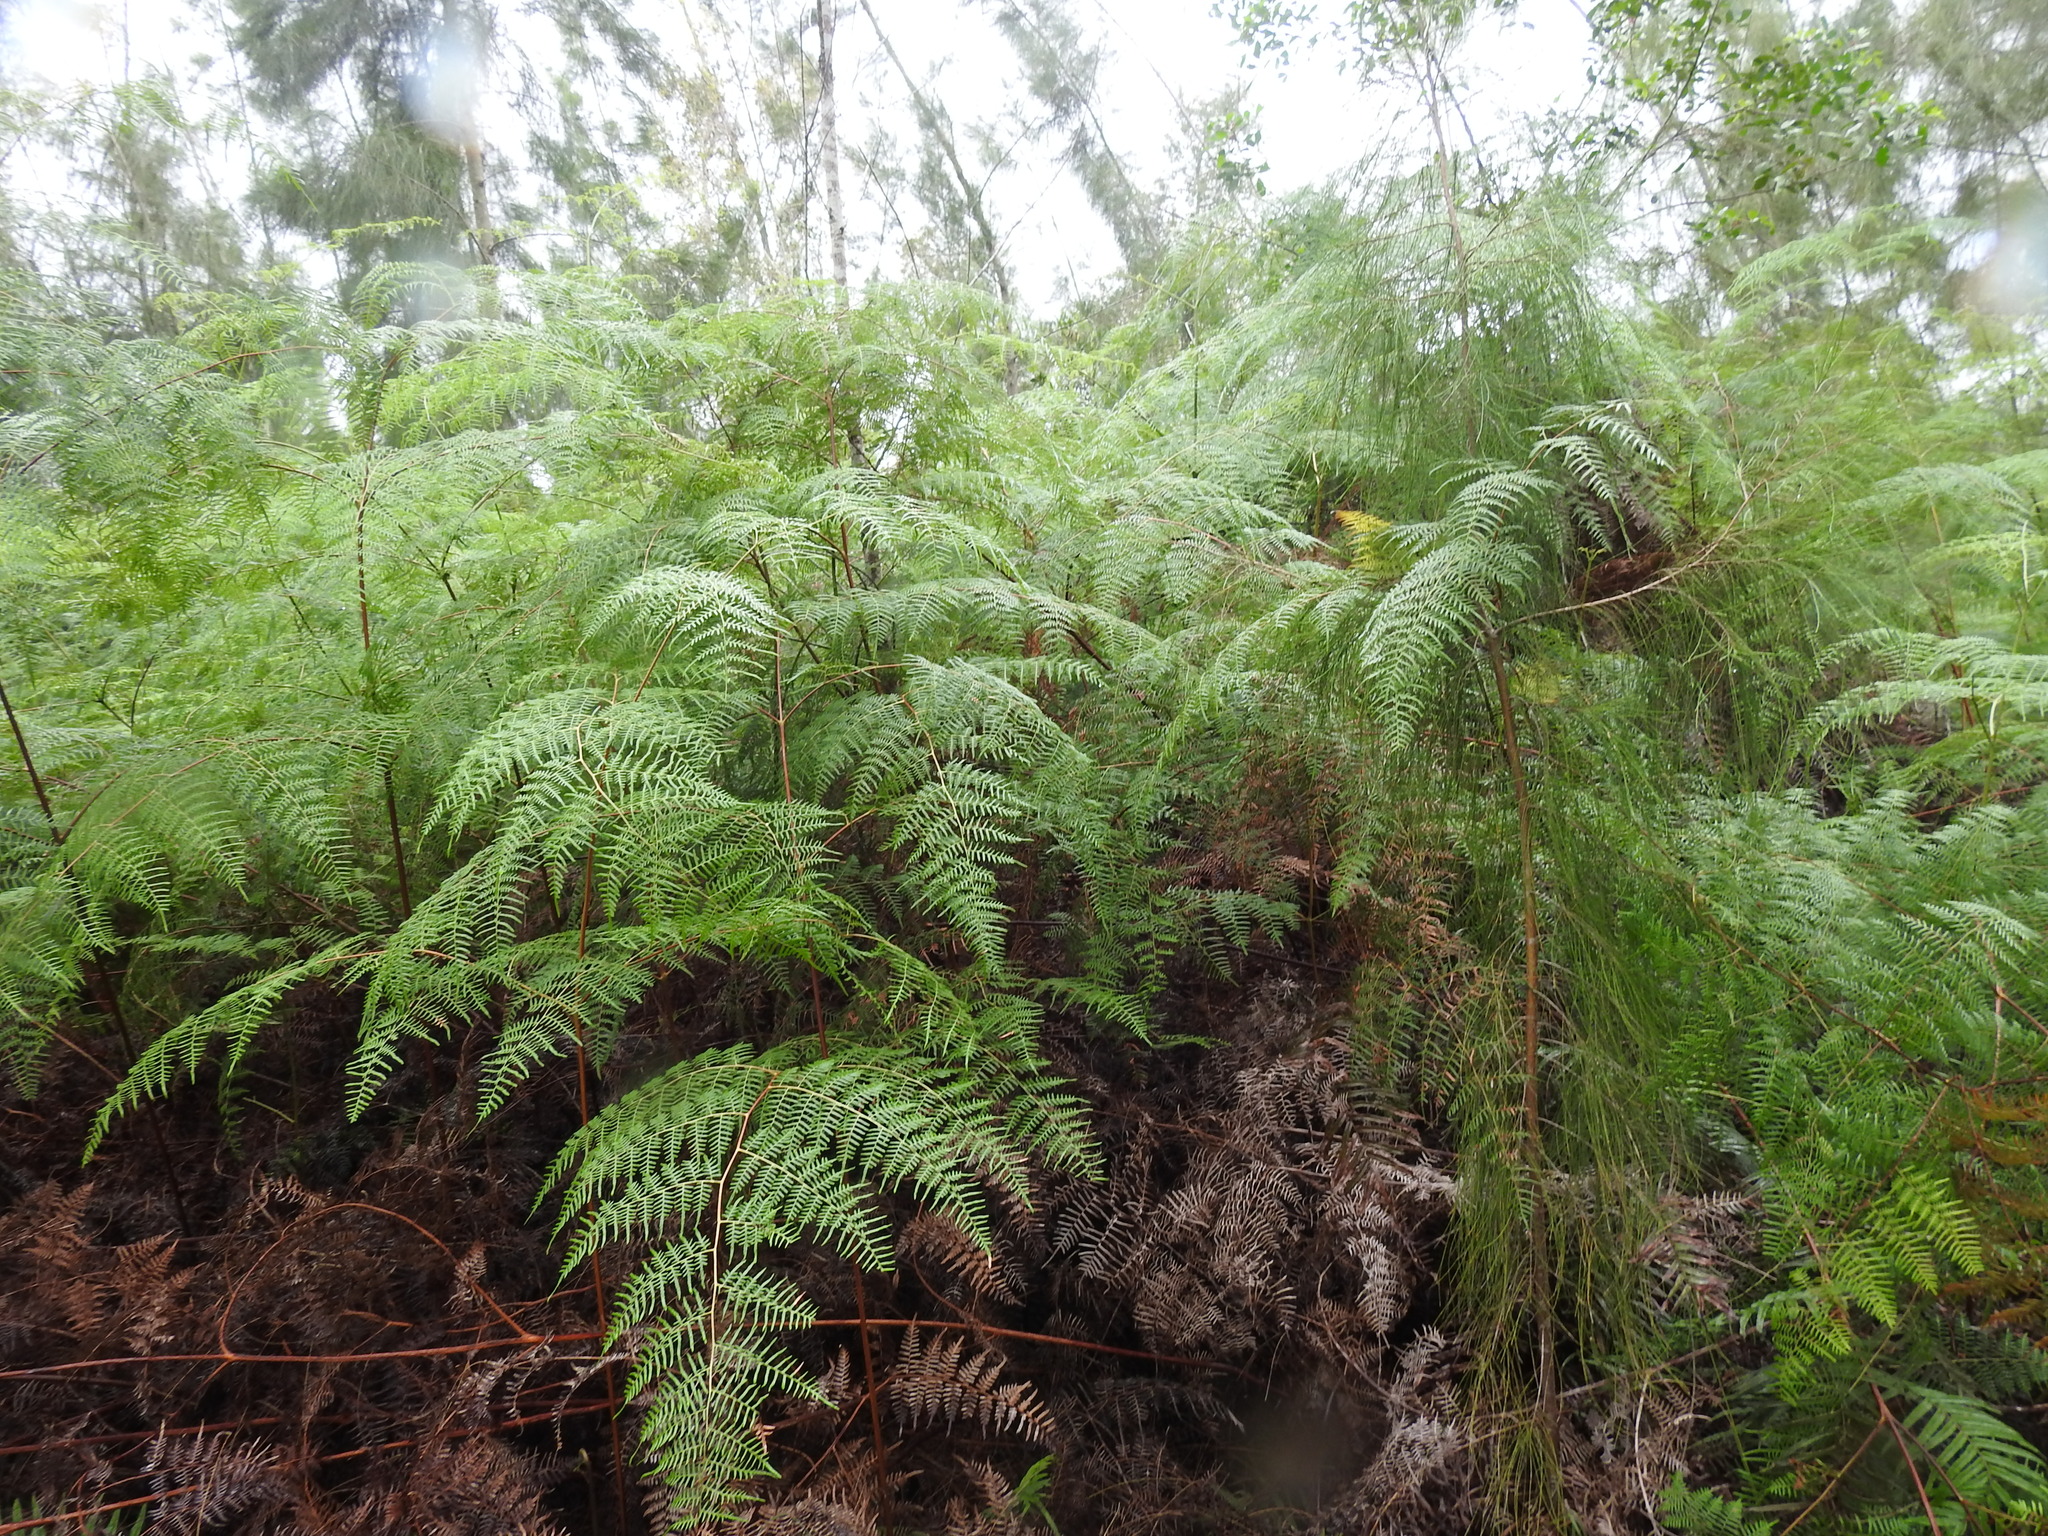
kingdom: Plantae
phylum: Tracheophyta
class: Polypodiopsida
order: Polypodiales
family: Dennstaedtiaceae
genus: Pteridium
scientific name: Pteridium caudatum
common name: Southern bracken fern
